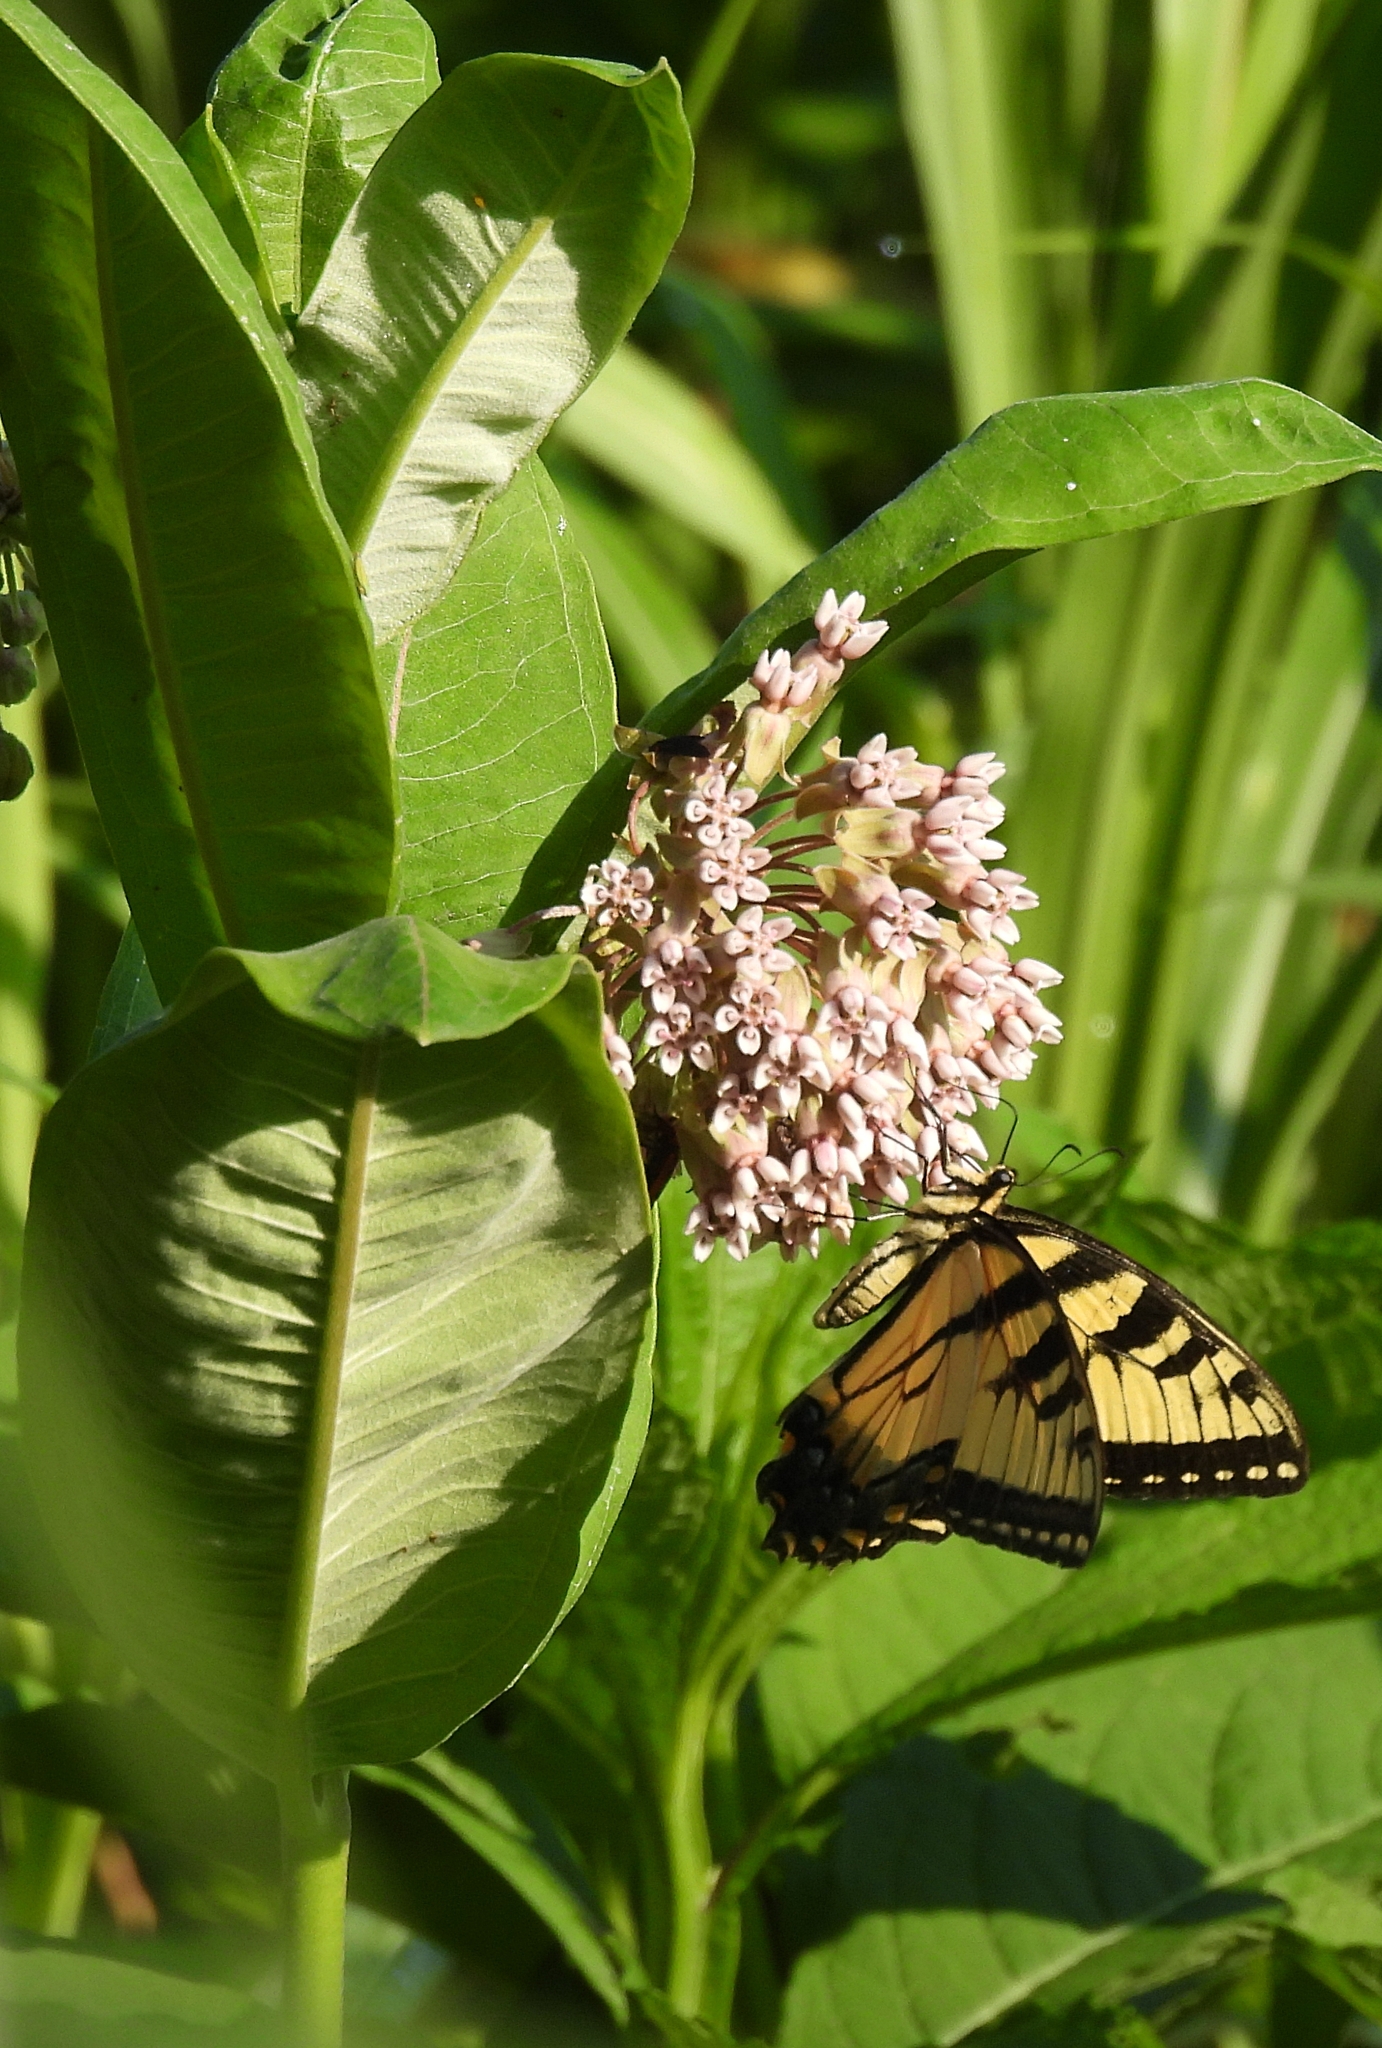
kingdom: Animalia
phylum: Arthropoda
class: Insecta
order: Lepidoptera
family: Papilionidae
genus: Papilio
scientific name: Papilio glaucus
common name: Tiger swallowtail
